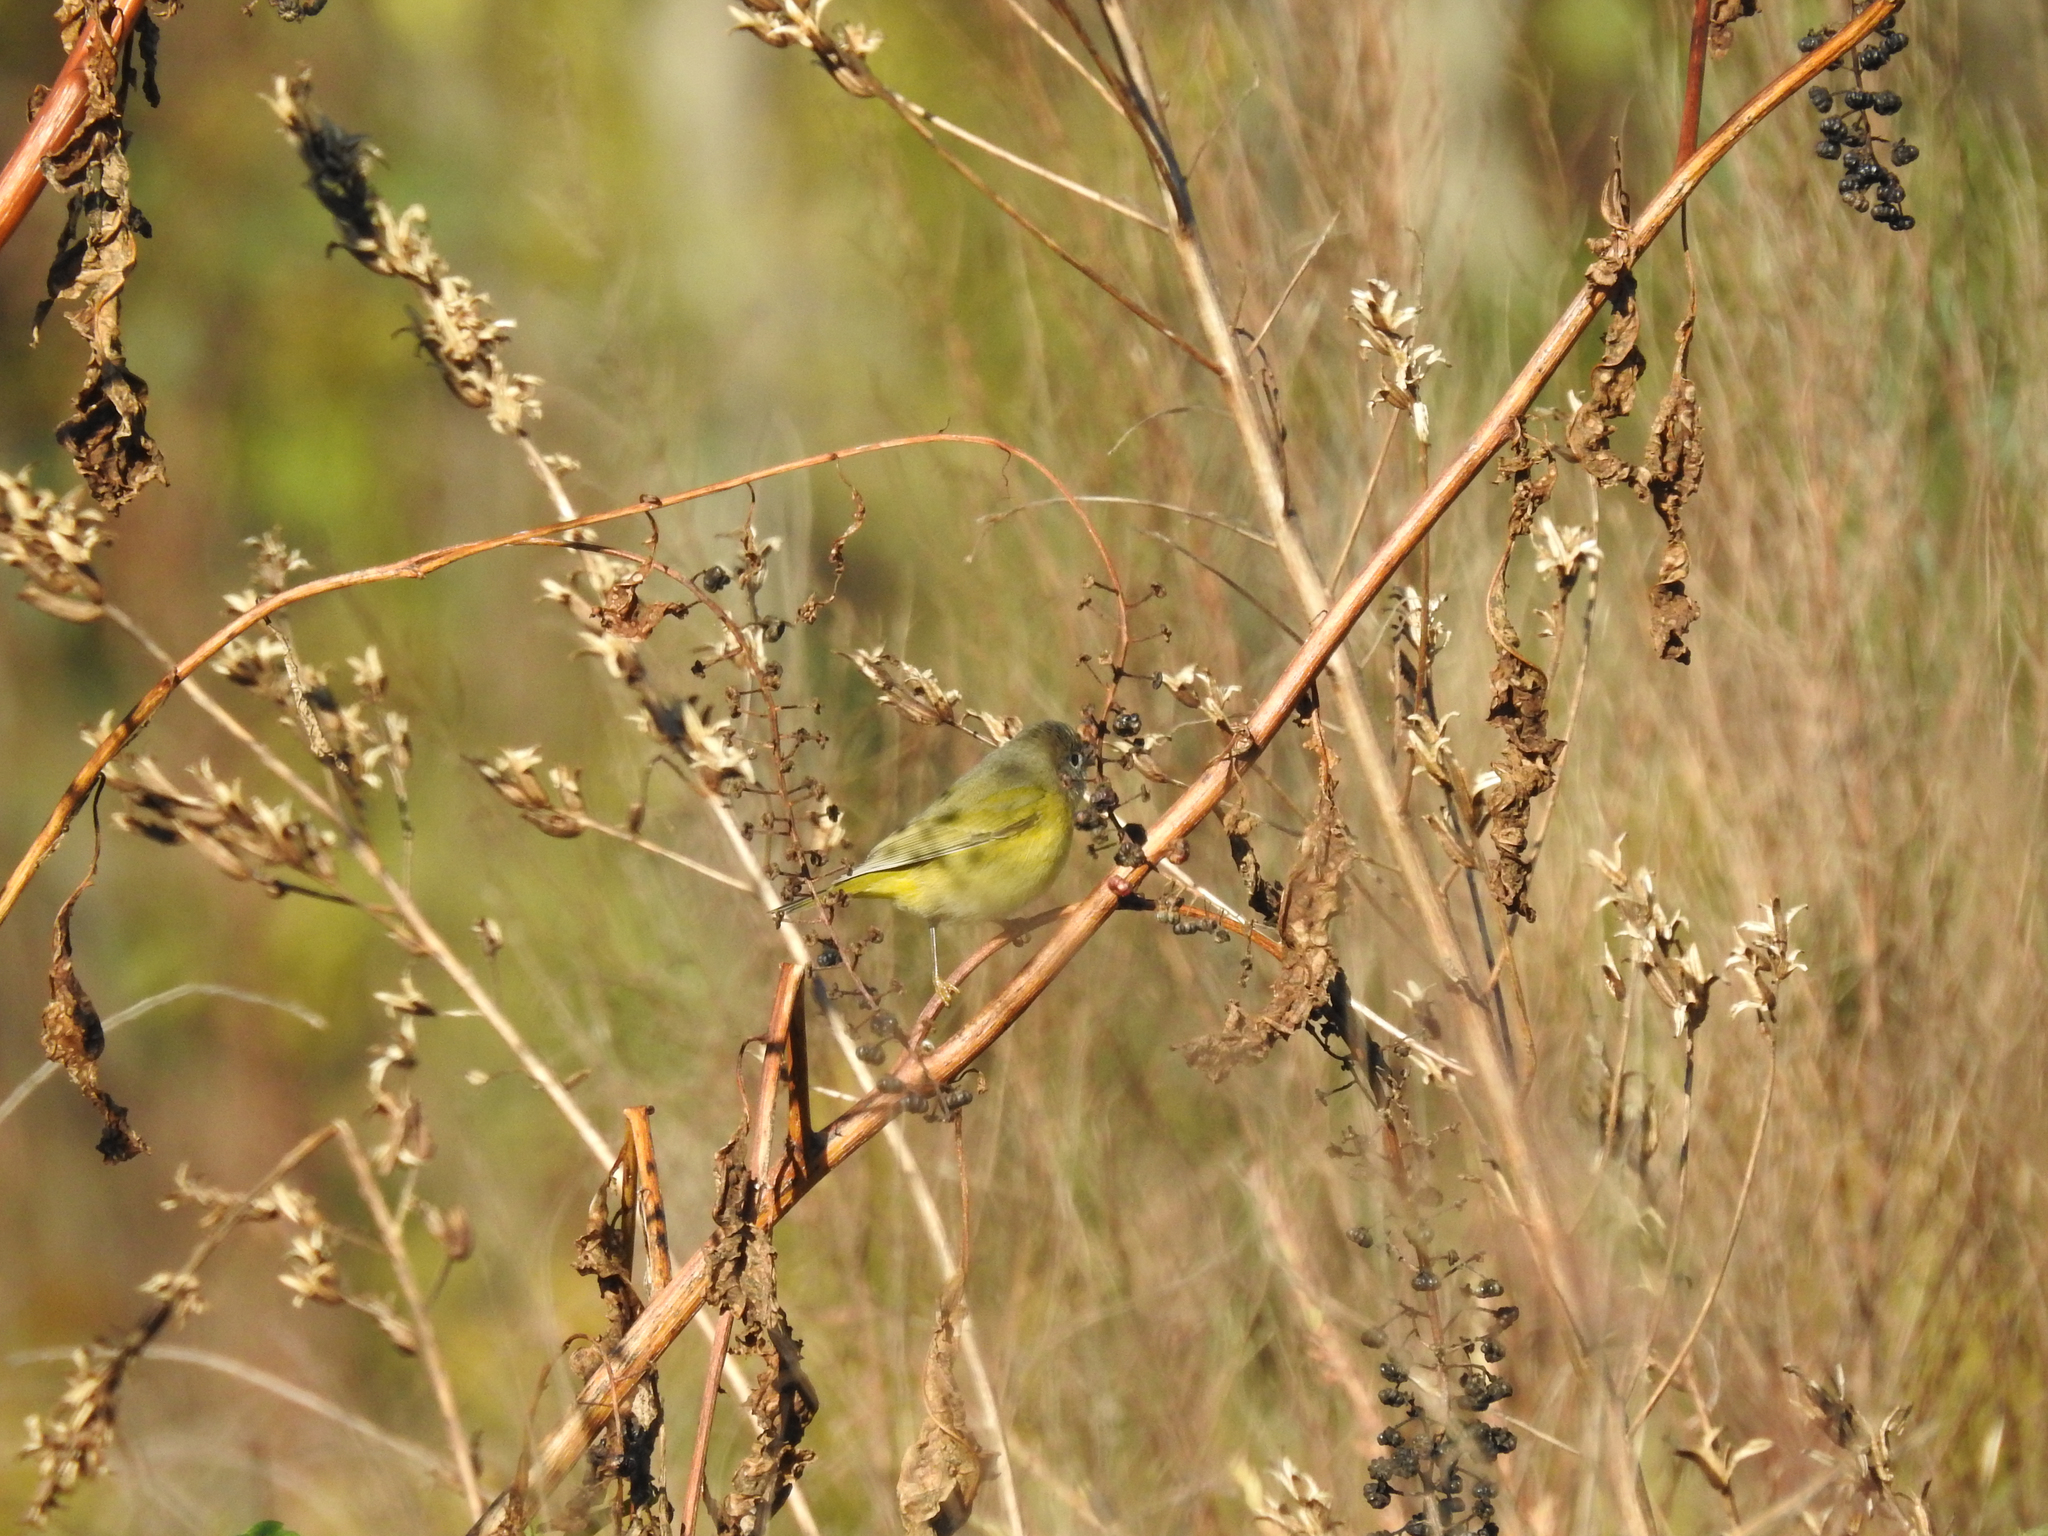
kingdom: Animalia
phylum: Chordata
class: Aves
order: Passeriformes
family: Parulidae
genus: Leiothlypis
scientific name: Leiothlypis ruficapilla
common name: Nashville warbler
